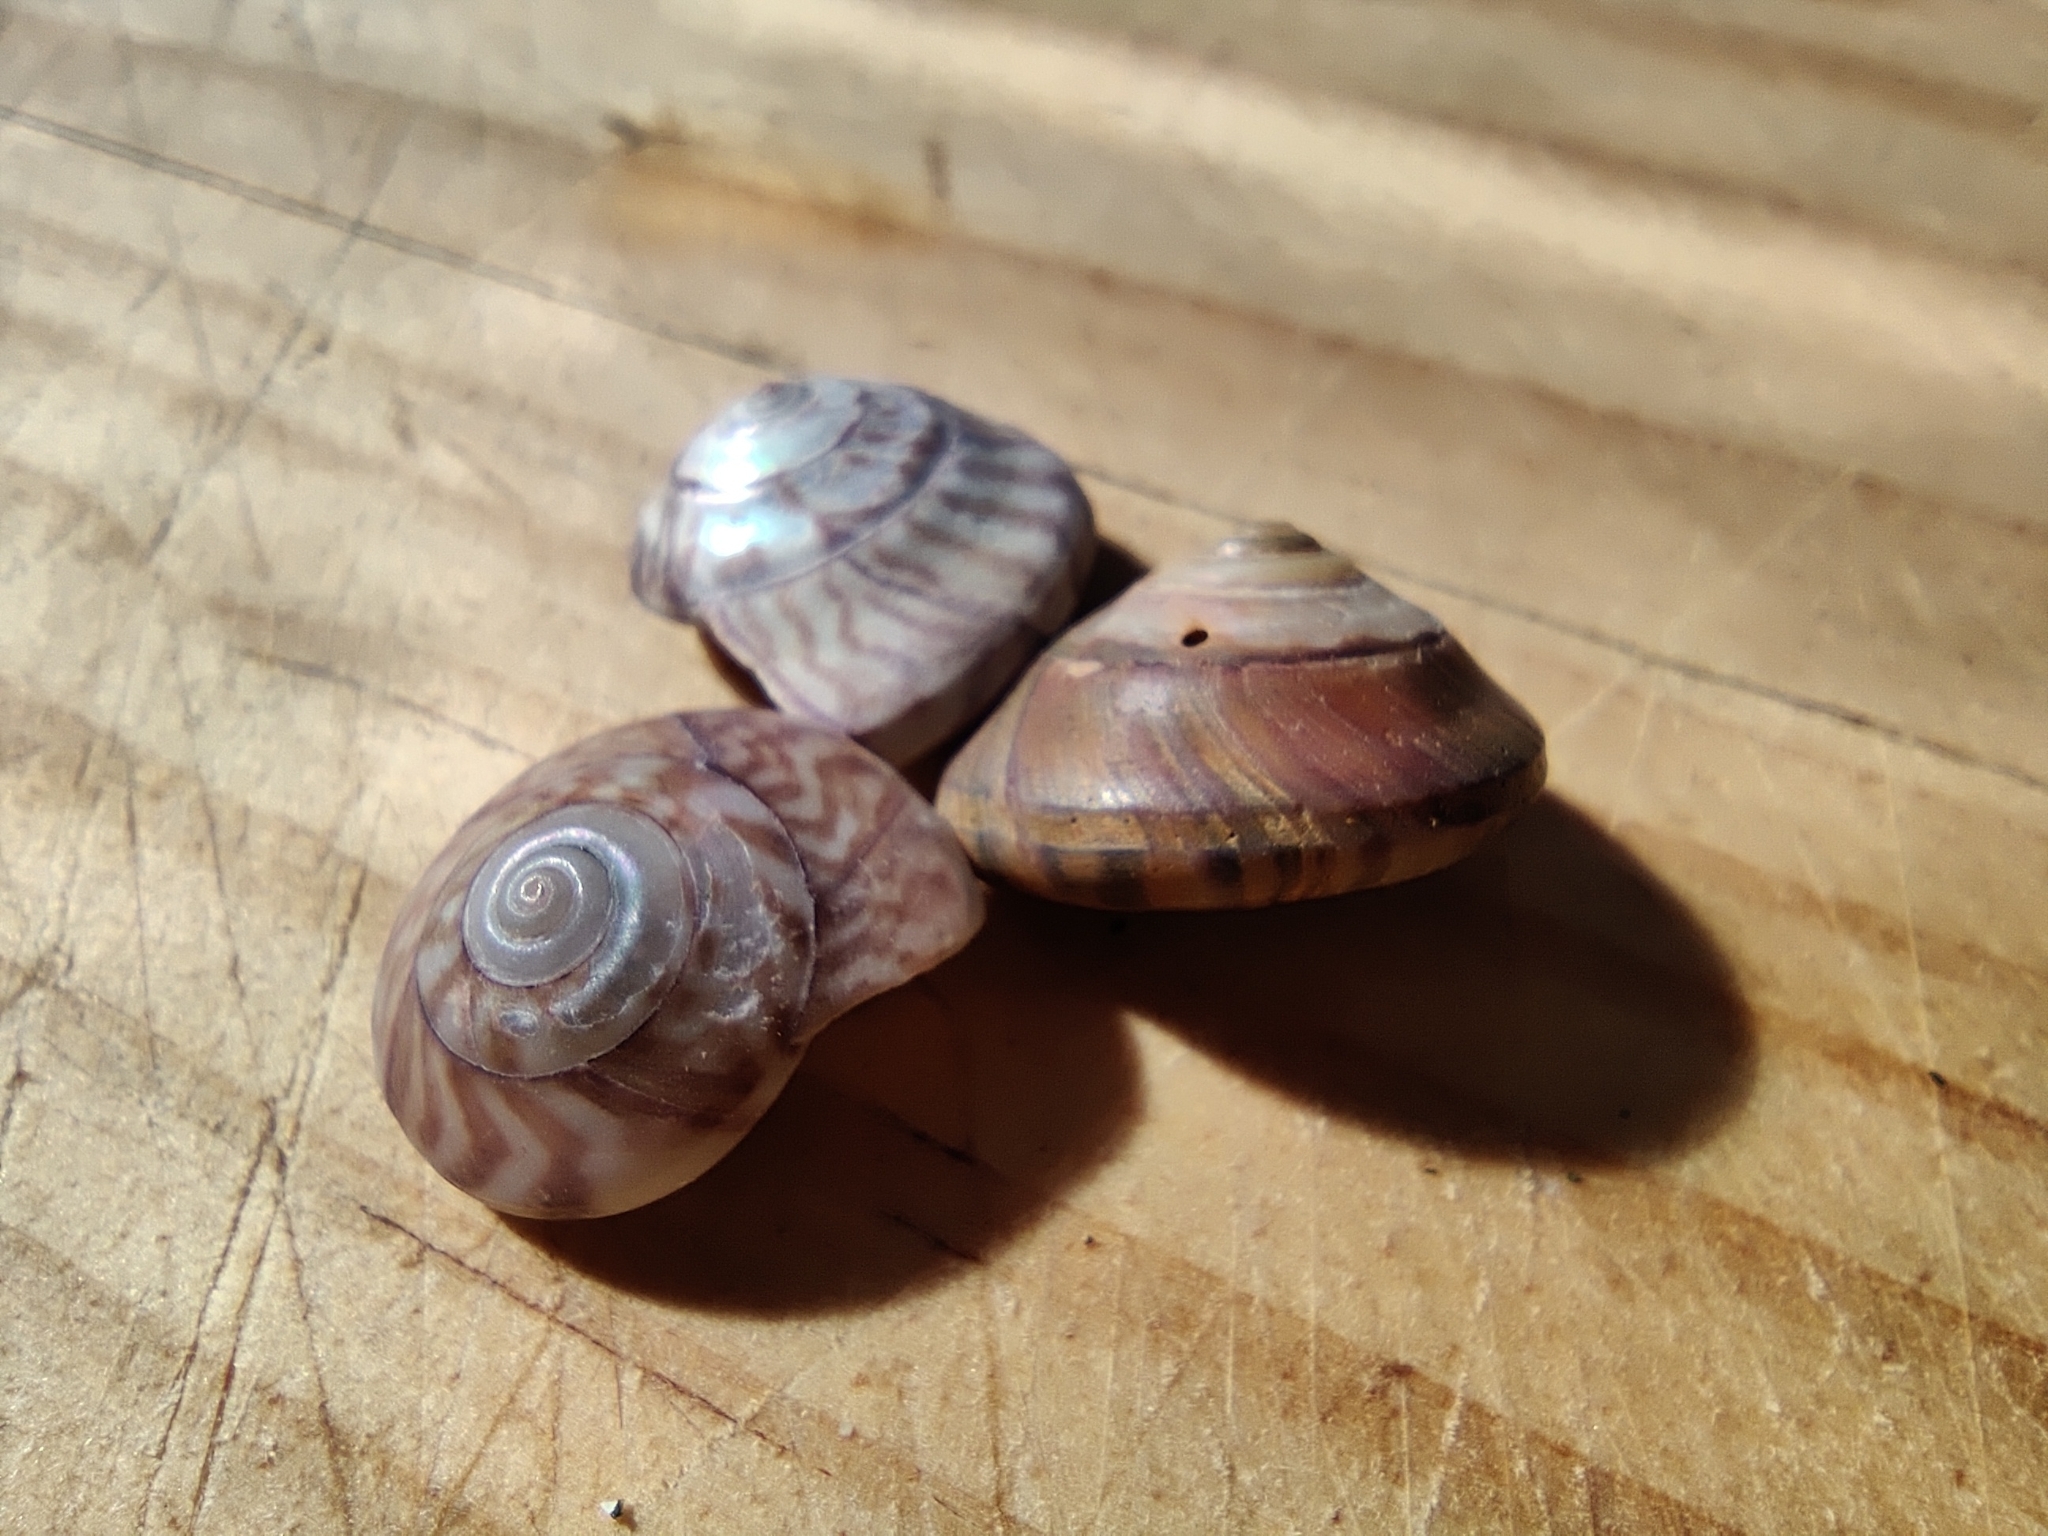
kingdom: Animalia
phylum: Mollusca
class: Gastropoda
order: Trochida
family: Trochidae
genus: Zethalia
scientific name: Zethalia zelandica
